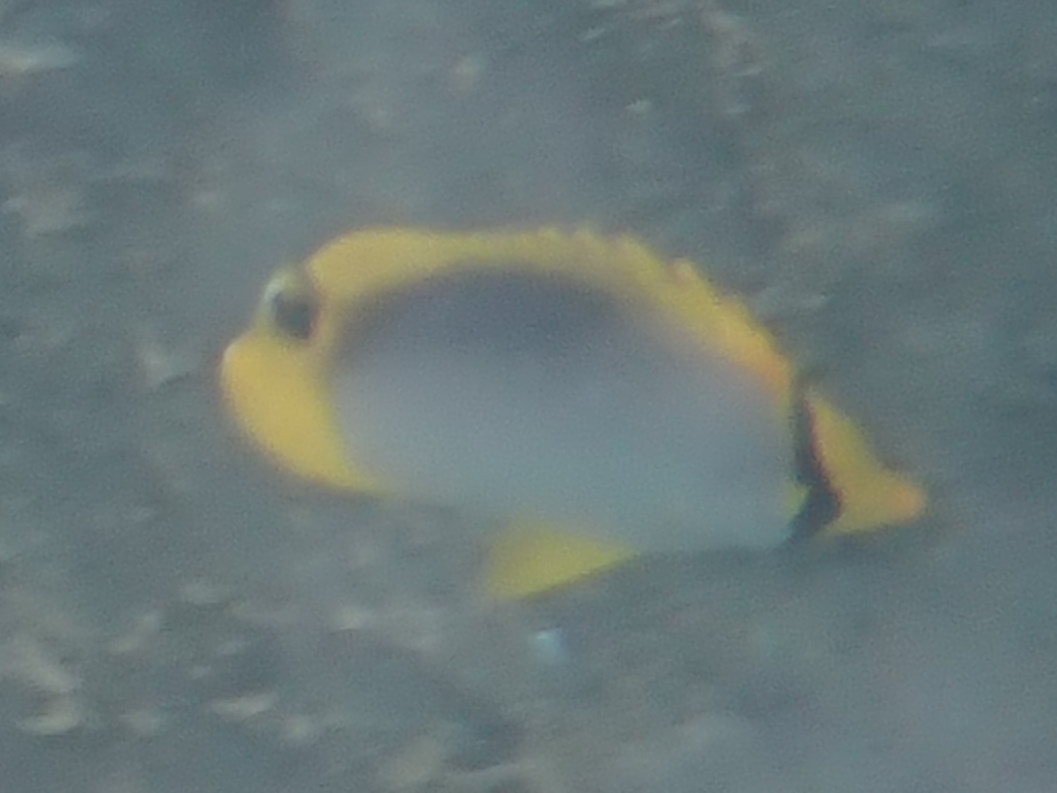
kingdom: Animalia
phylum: Chordata
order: Perciformes
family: Chaetodontidae
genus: Chaetodon
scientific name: Chaetodon melannotus
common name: Blackback butterflyfish
